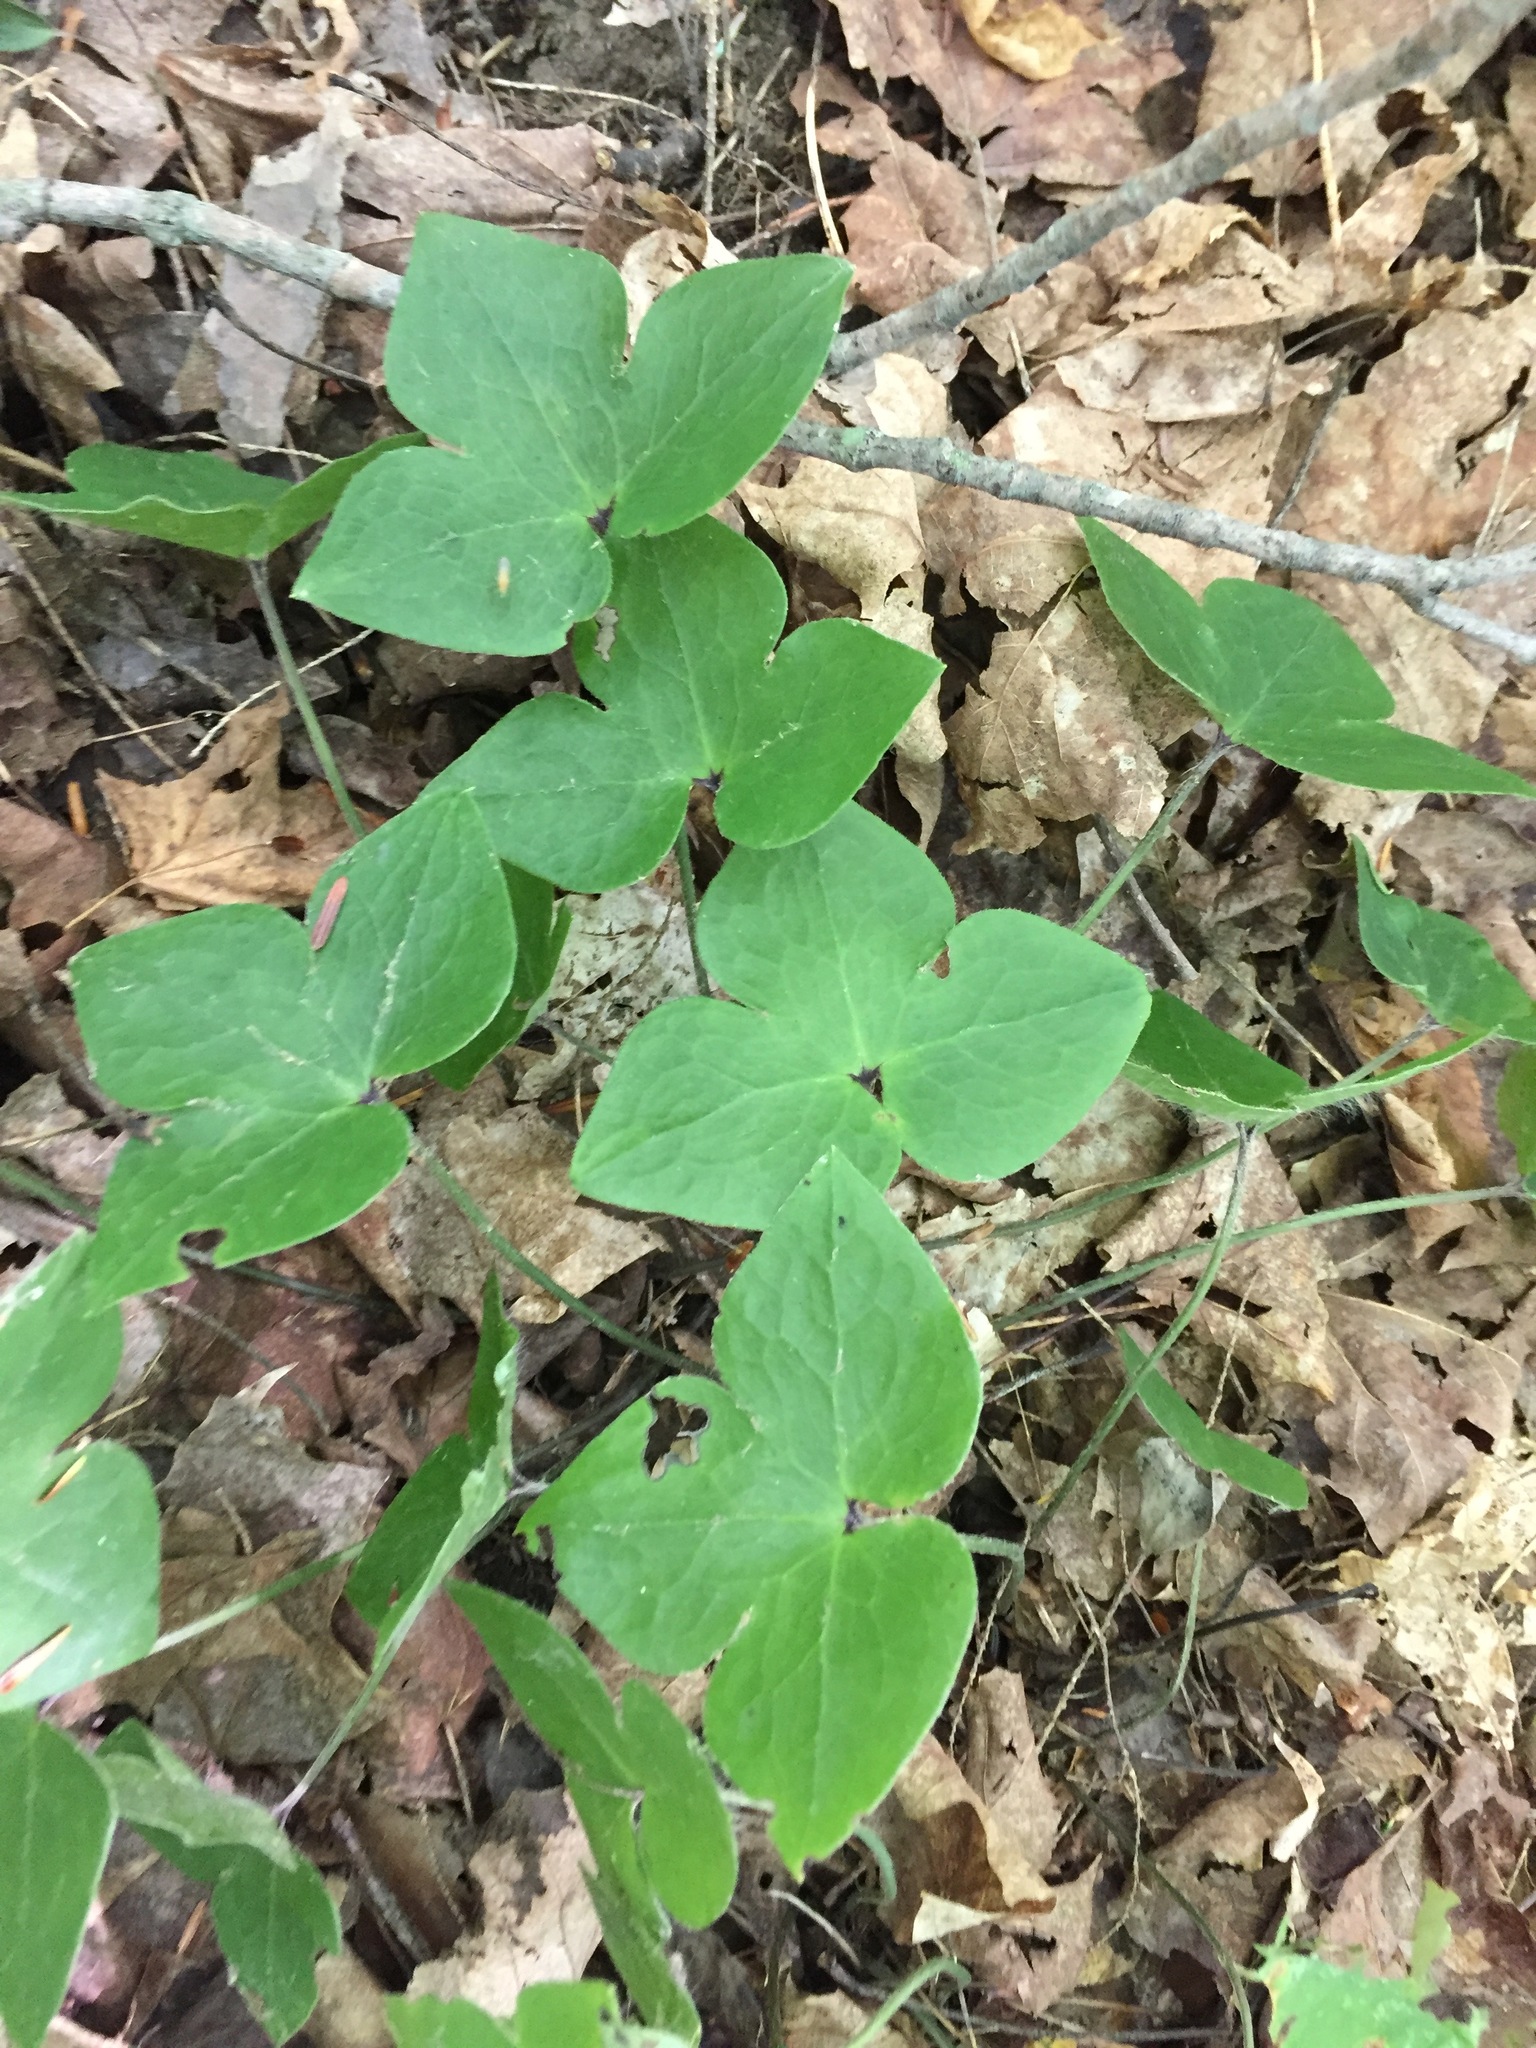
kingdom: Plantae
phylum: Tracheophyta
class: Magnoliopsida
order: Ranunculales
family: Ranunculaceae
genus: Hepatica
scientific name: Hepatica acutiloba
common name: Sharp-lobed hepatica
